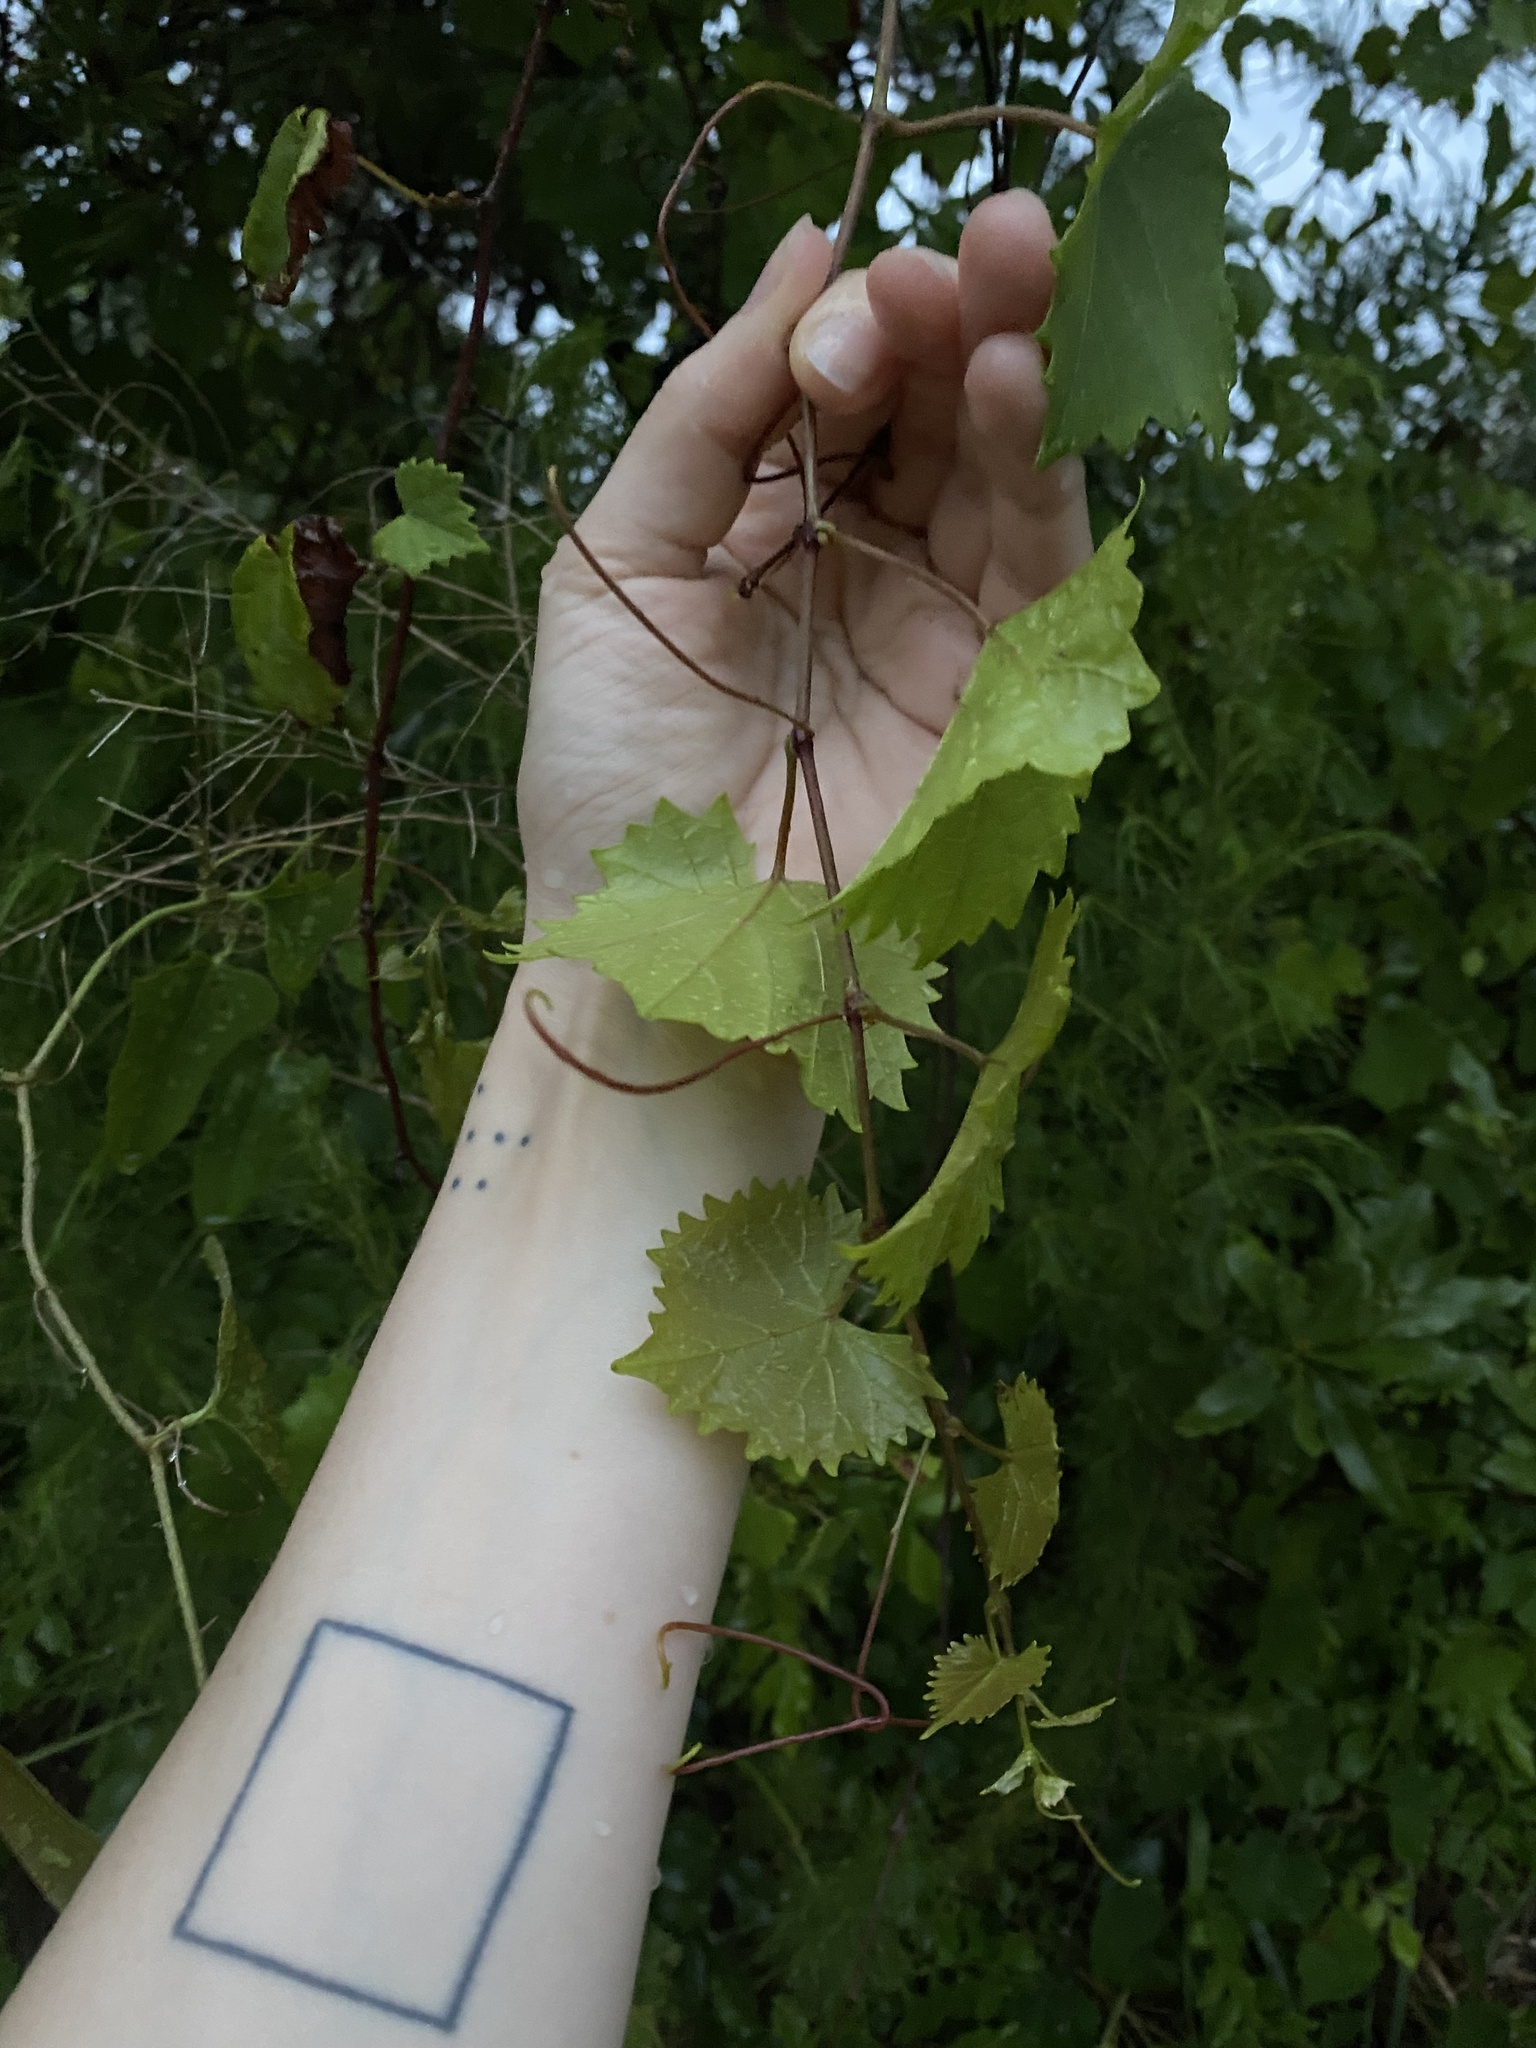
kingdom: Plantae
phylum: Tracheophyta
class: Magnoliopsida
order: Vitales
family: Vitaceae
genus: Vitis
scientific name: Vitis rotundifolia
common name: Muscadine grape
